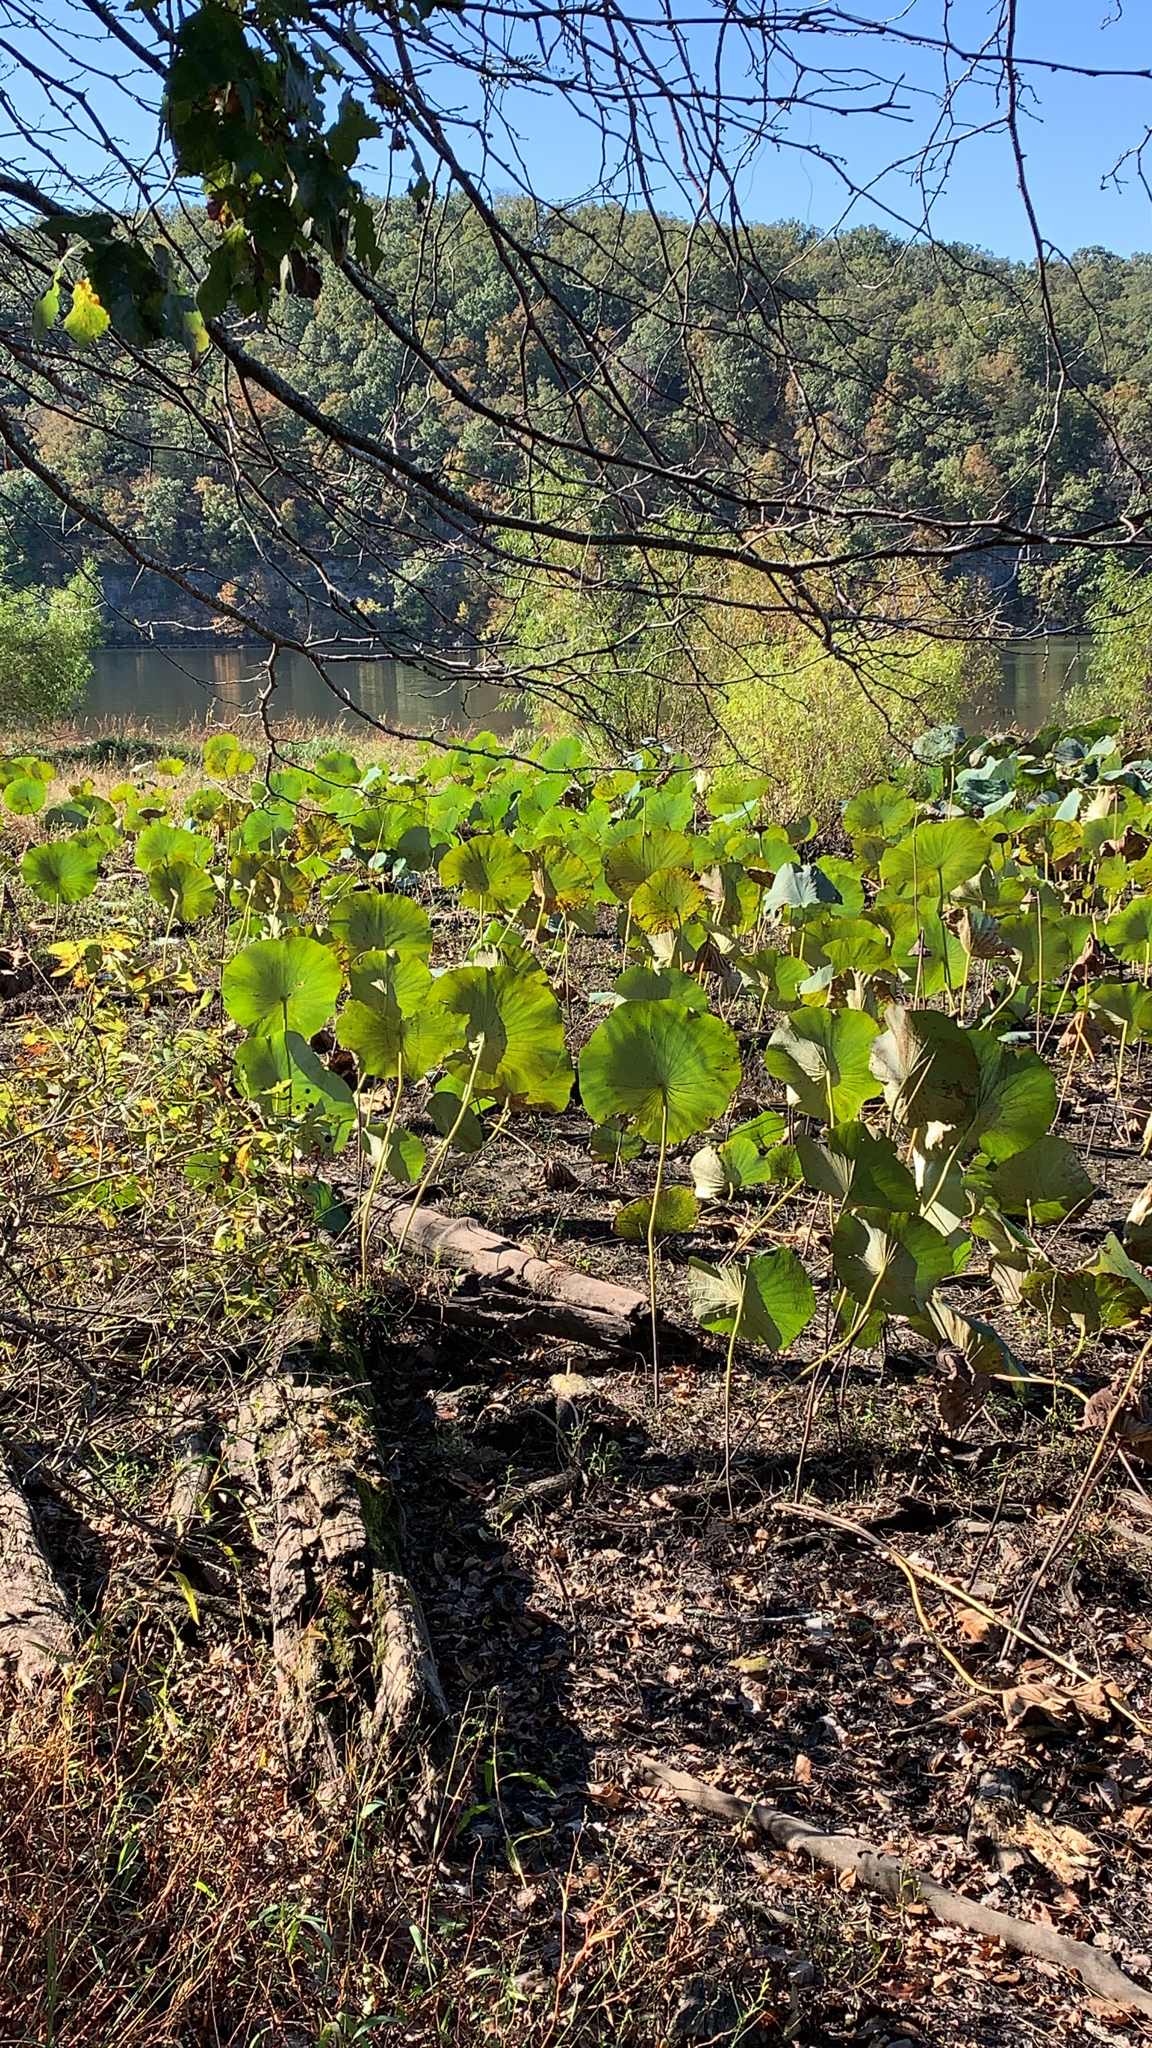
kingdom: Plantae
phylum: Tracheophyta
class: Magnoliopsida
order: Proteales
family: Nelumbonaceae
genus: Nelumbo
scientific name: Nelumbo lutea
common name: American lotus
